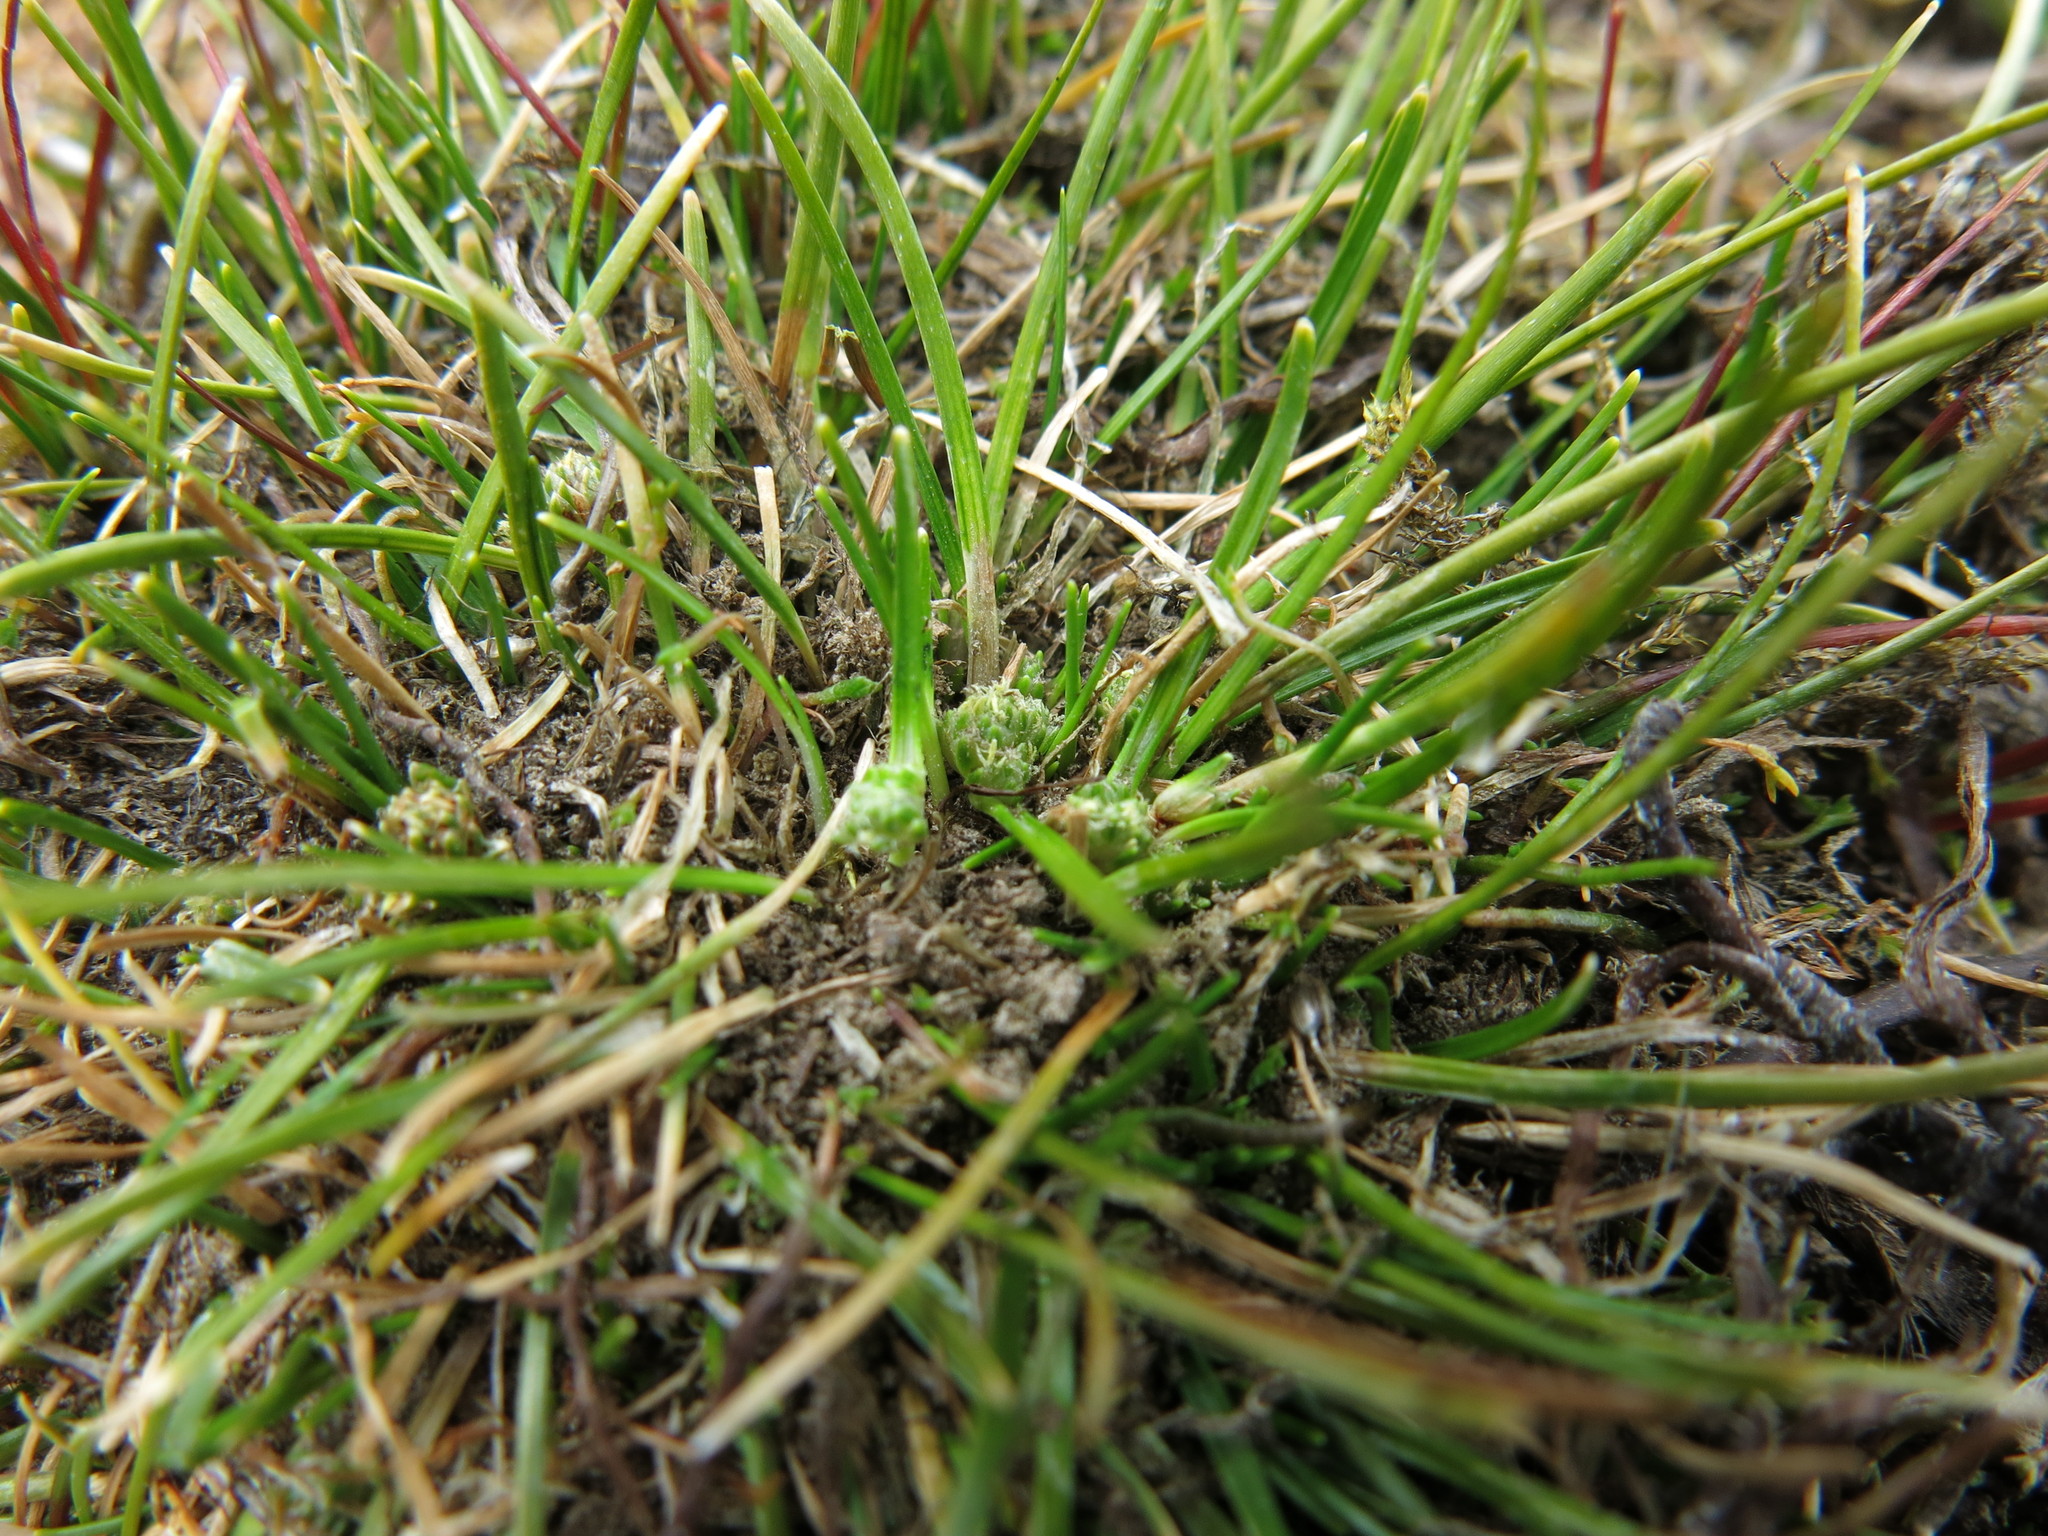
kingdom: Plantae
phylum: Tracheophyta
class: Liliopsida
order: Poales
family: Cyperaceae
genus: Isolepis
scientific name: Isolepis basilaris
